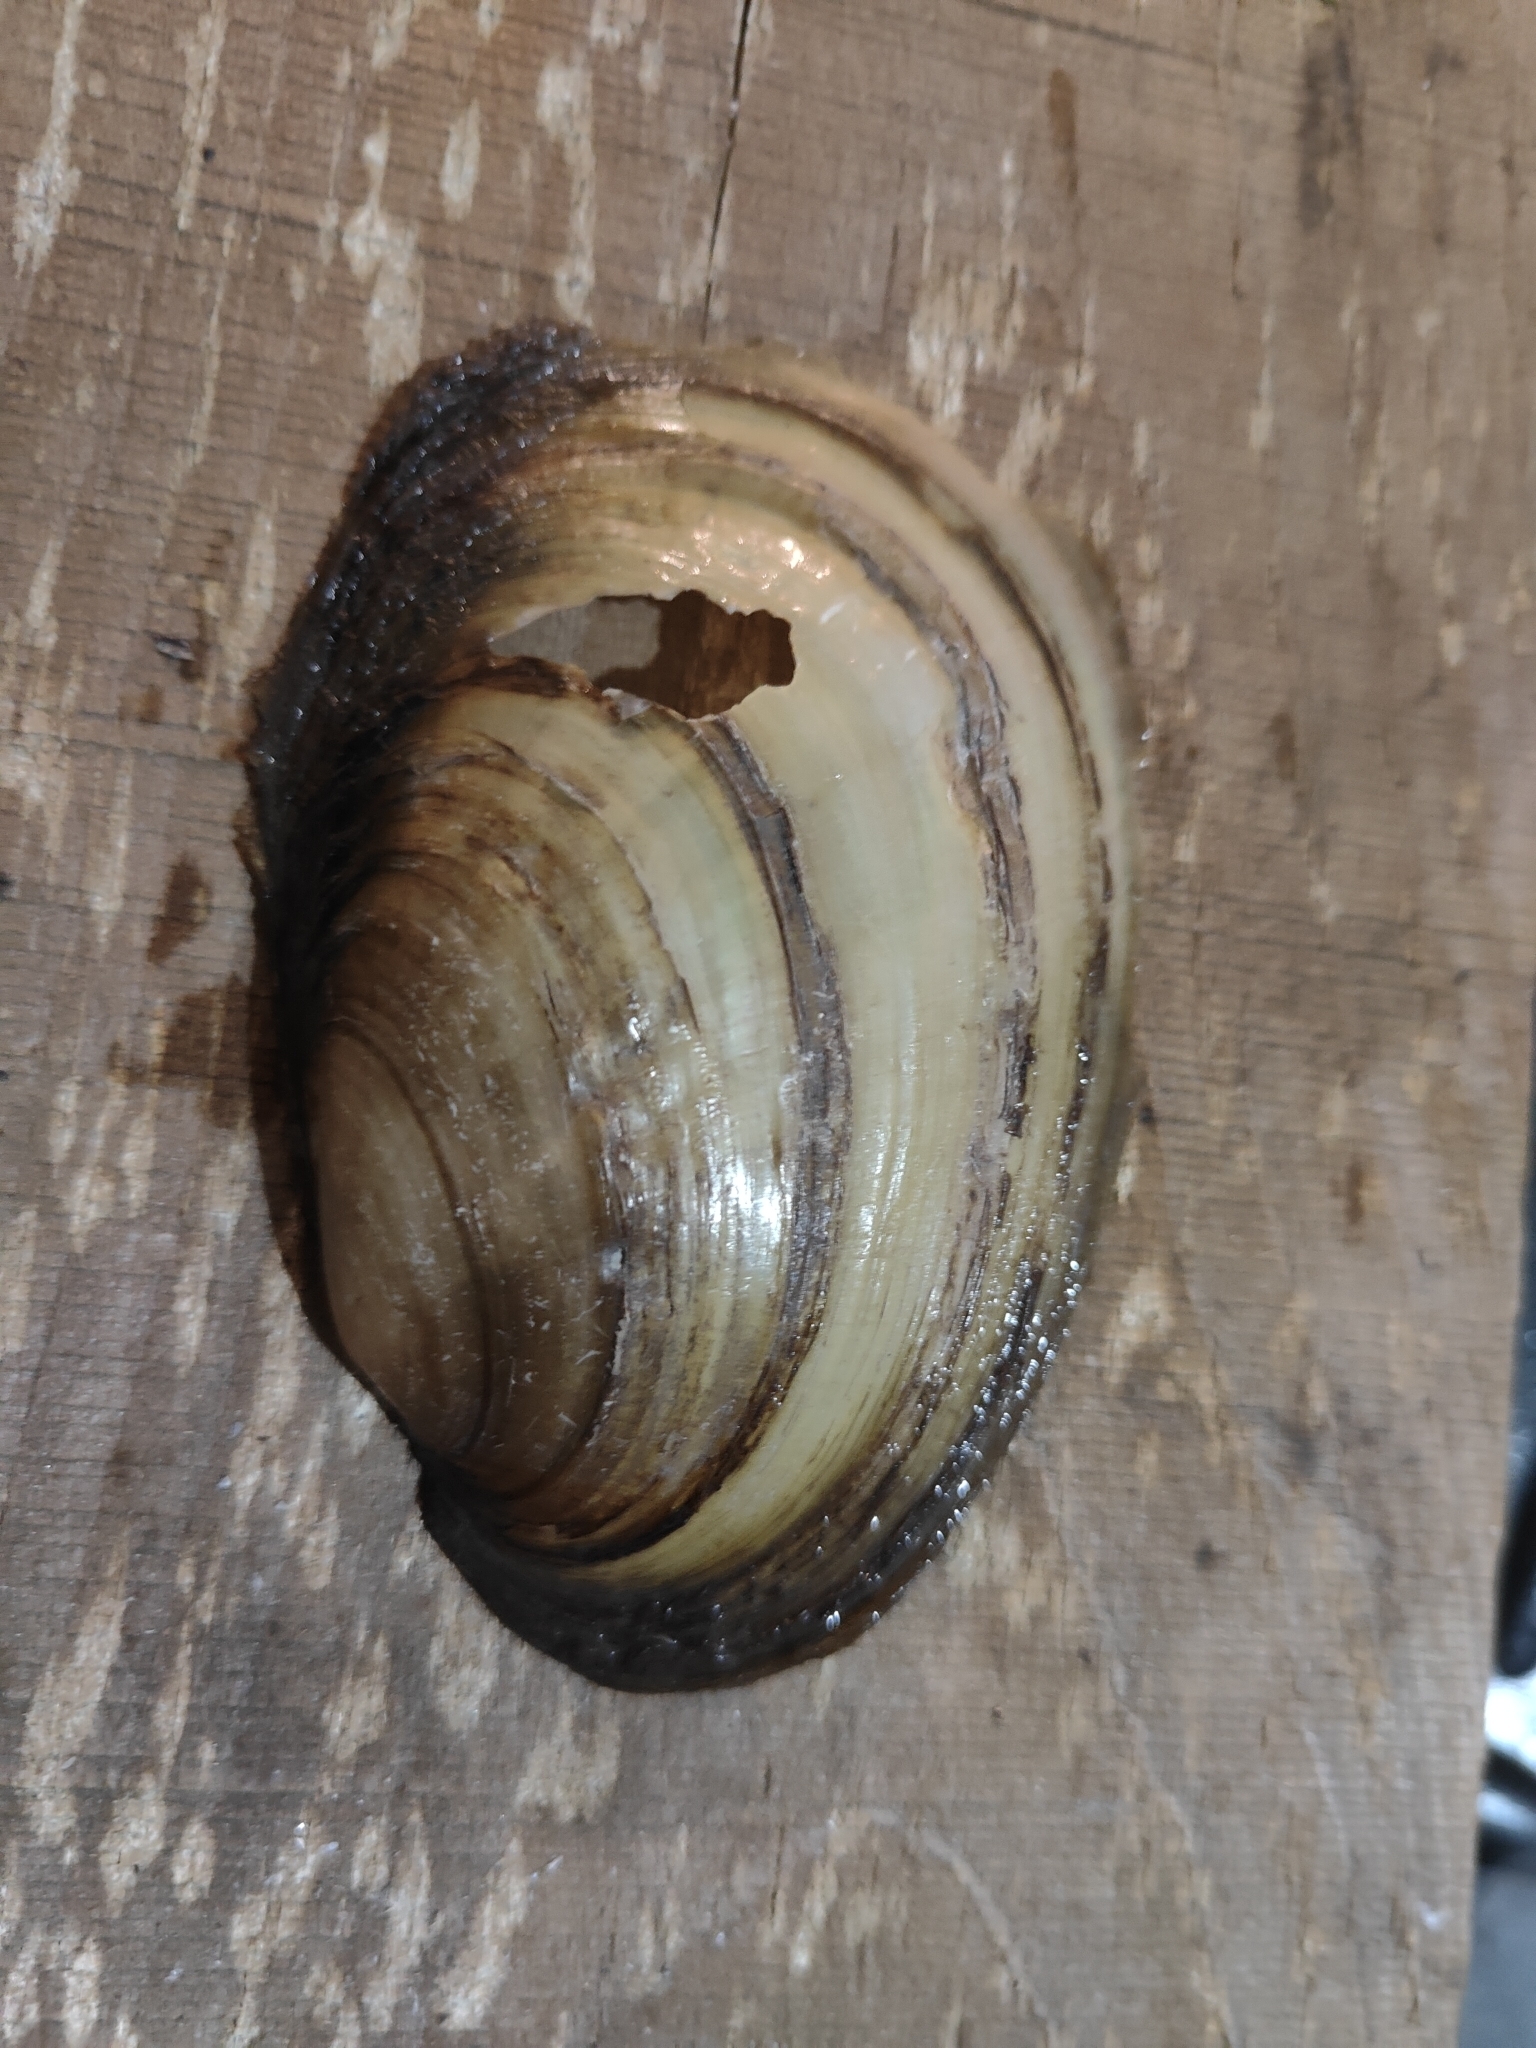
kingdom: Animalia
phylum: Mollusca
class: Bivalvia
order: Unionida
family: Unionidae
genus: Potamilus
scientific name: Potamilus fragilis
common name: Fragile papershell
